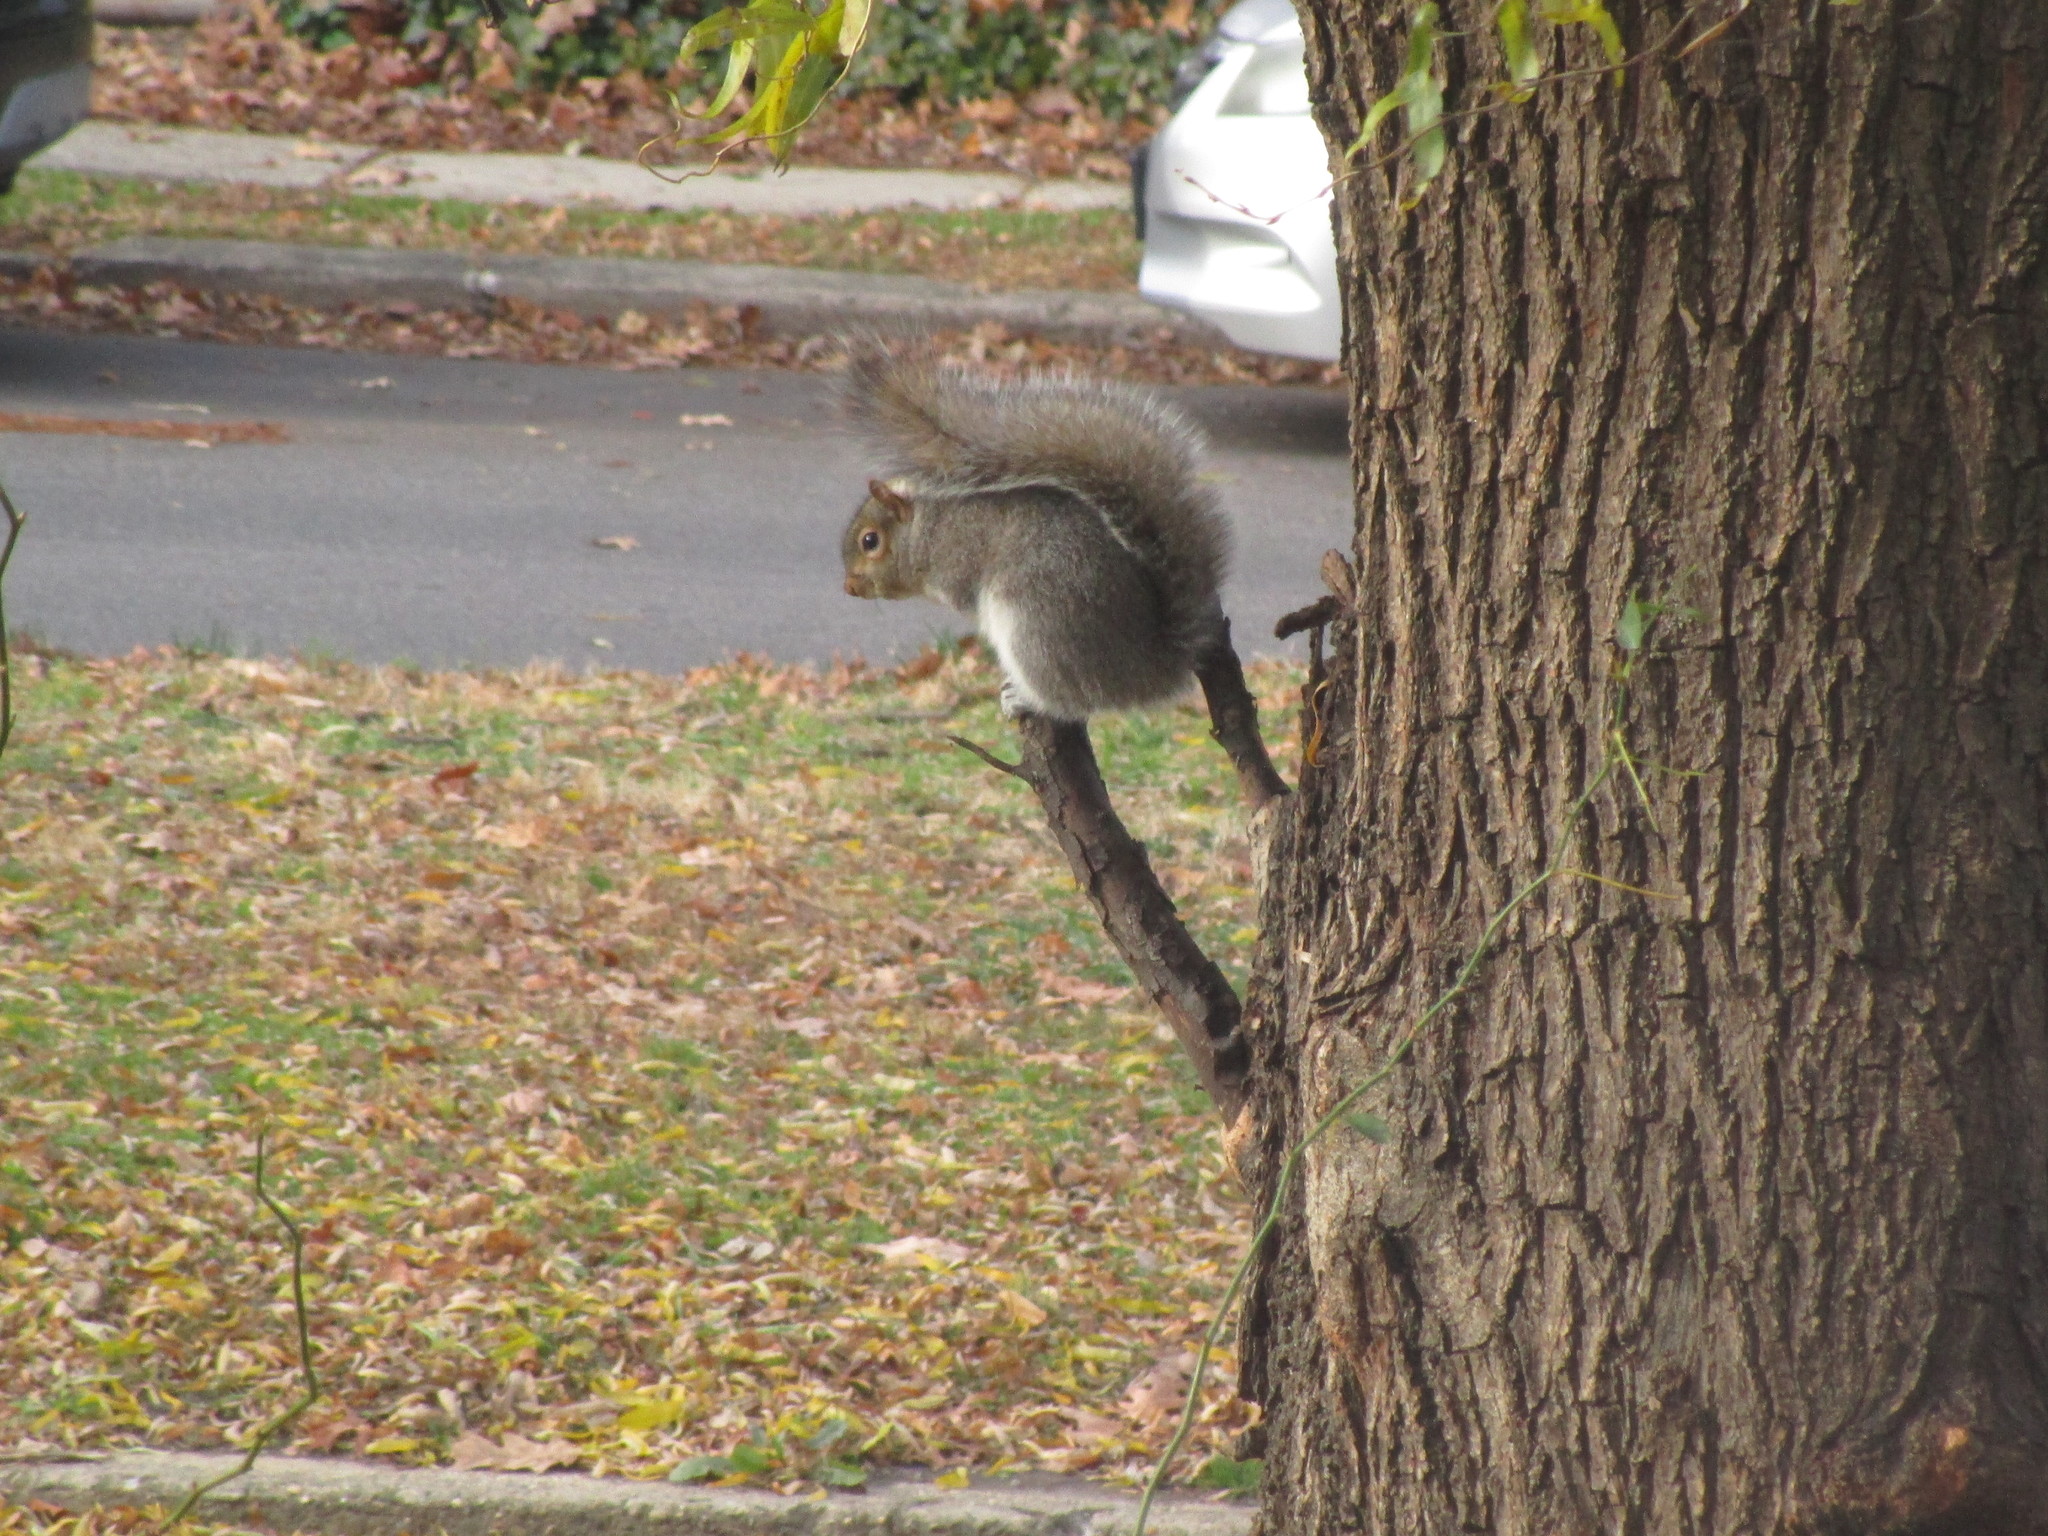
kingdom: Animalia
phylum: Chordata
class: Mammalia
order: Rodentia
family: Sciuridae
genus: Sciurus
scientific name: Sciurus carolinensis
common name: Eastern gray squirrel
